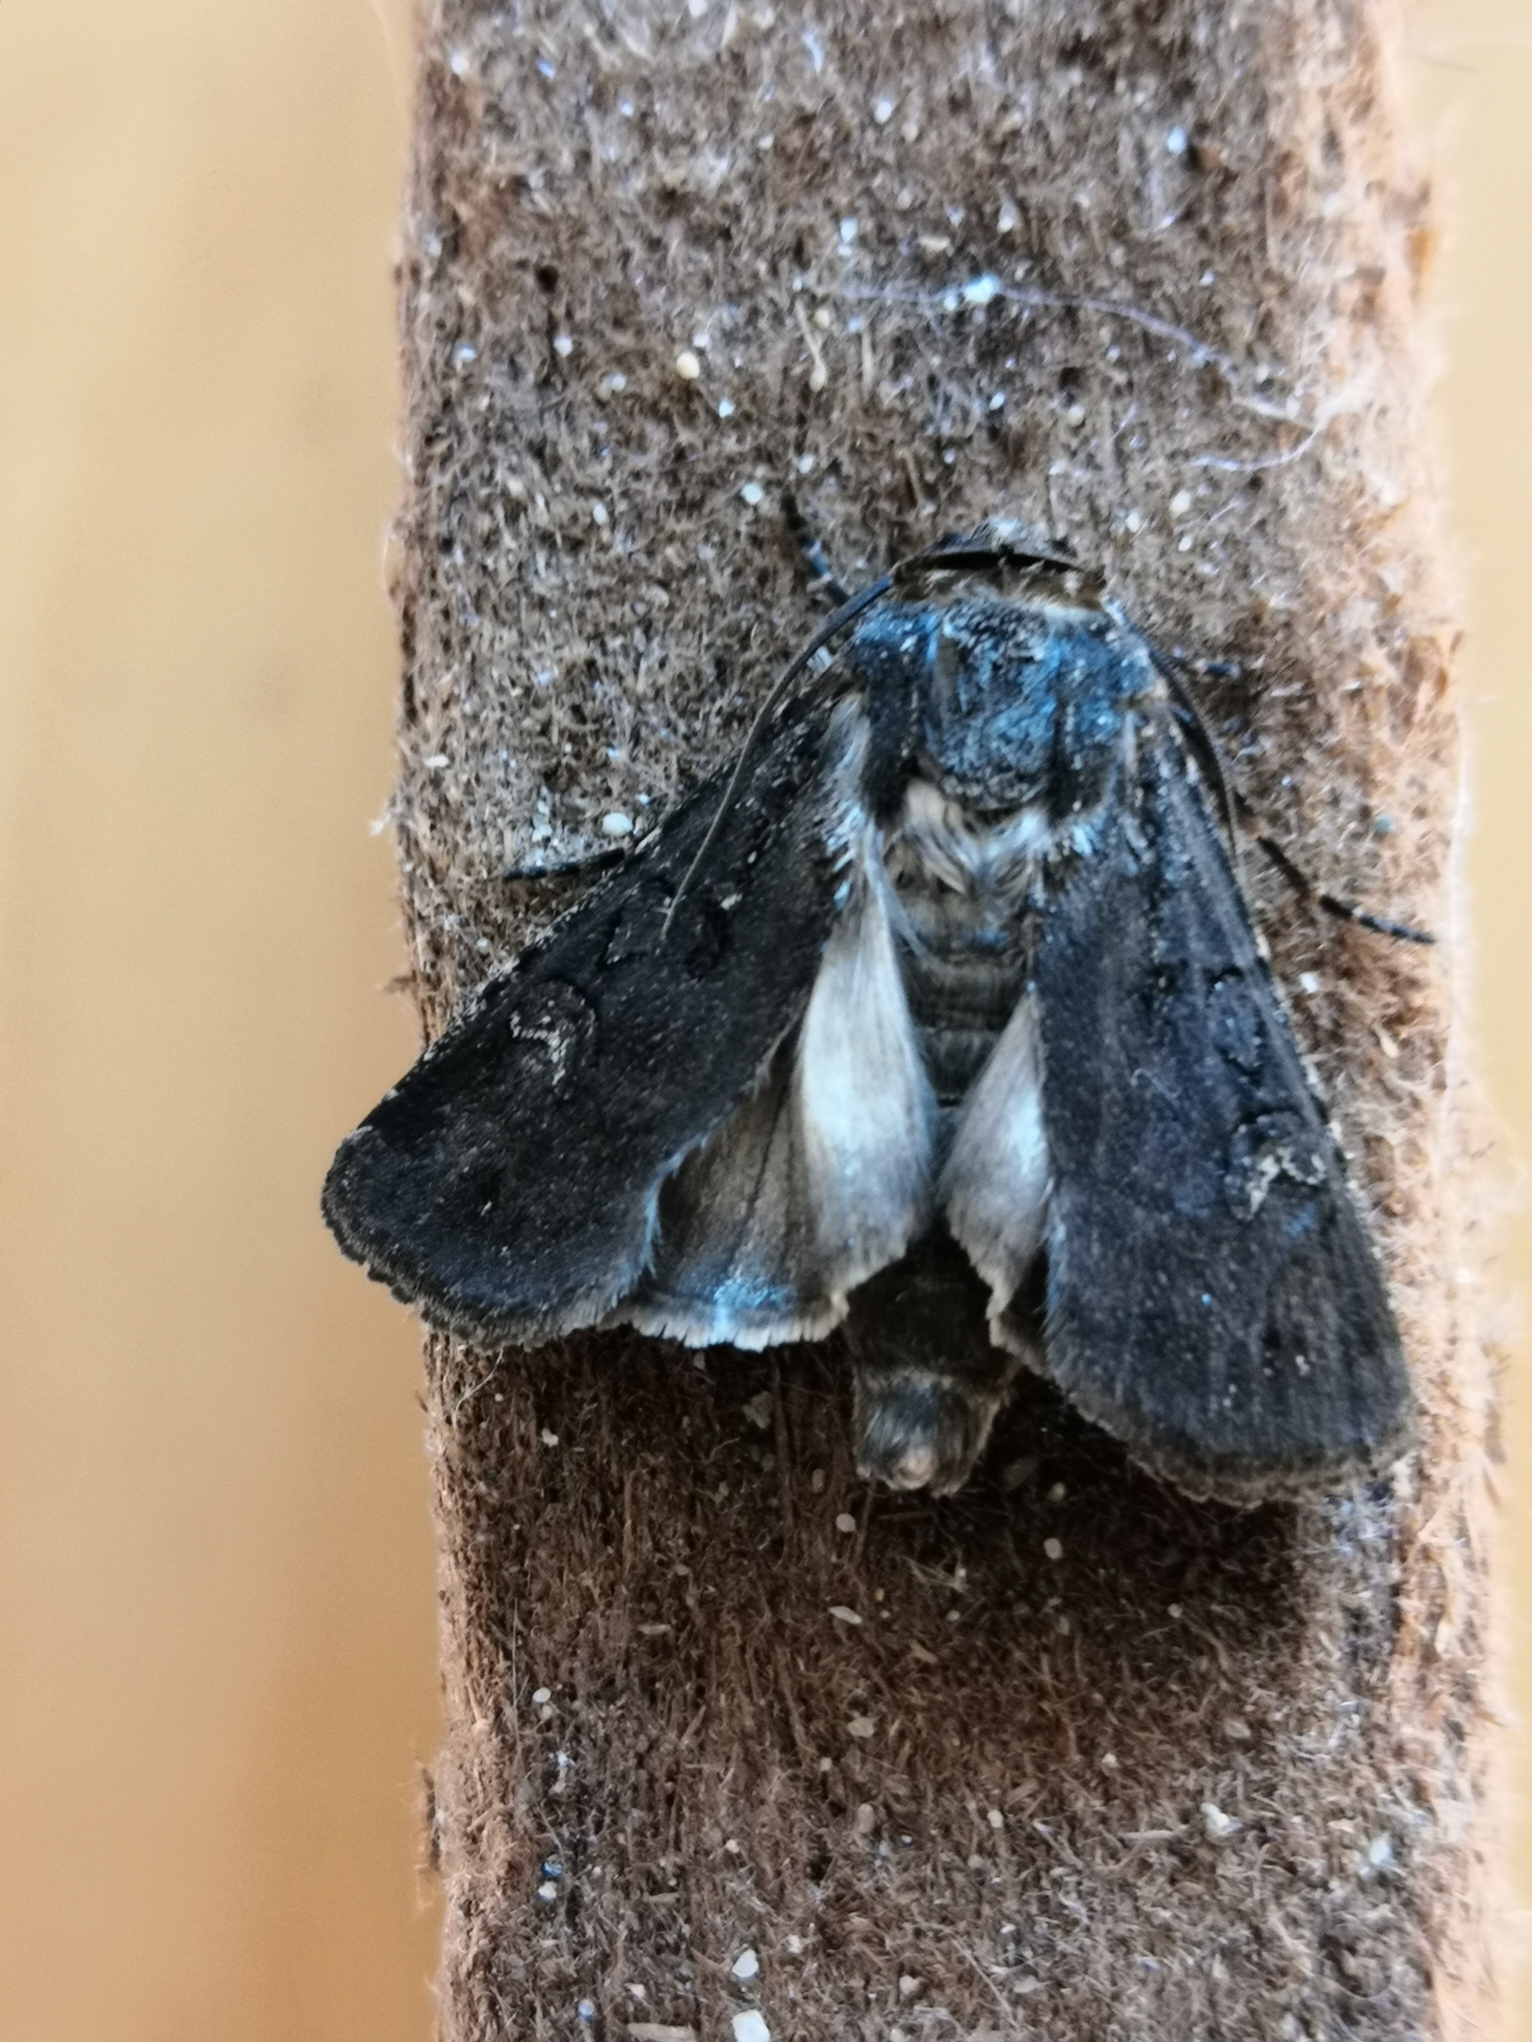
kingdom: Animalia
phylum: Arthropoda
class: Insecta
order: Lepidoptera
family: Noctuidae
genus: Euxoa
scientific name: Euxoa nigricans
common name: Garden dart
